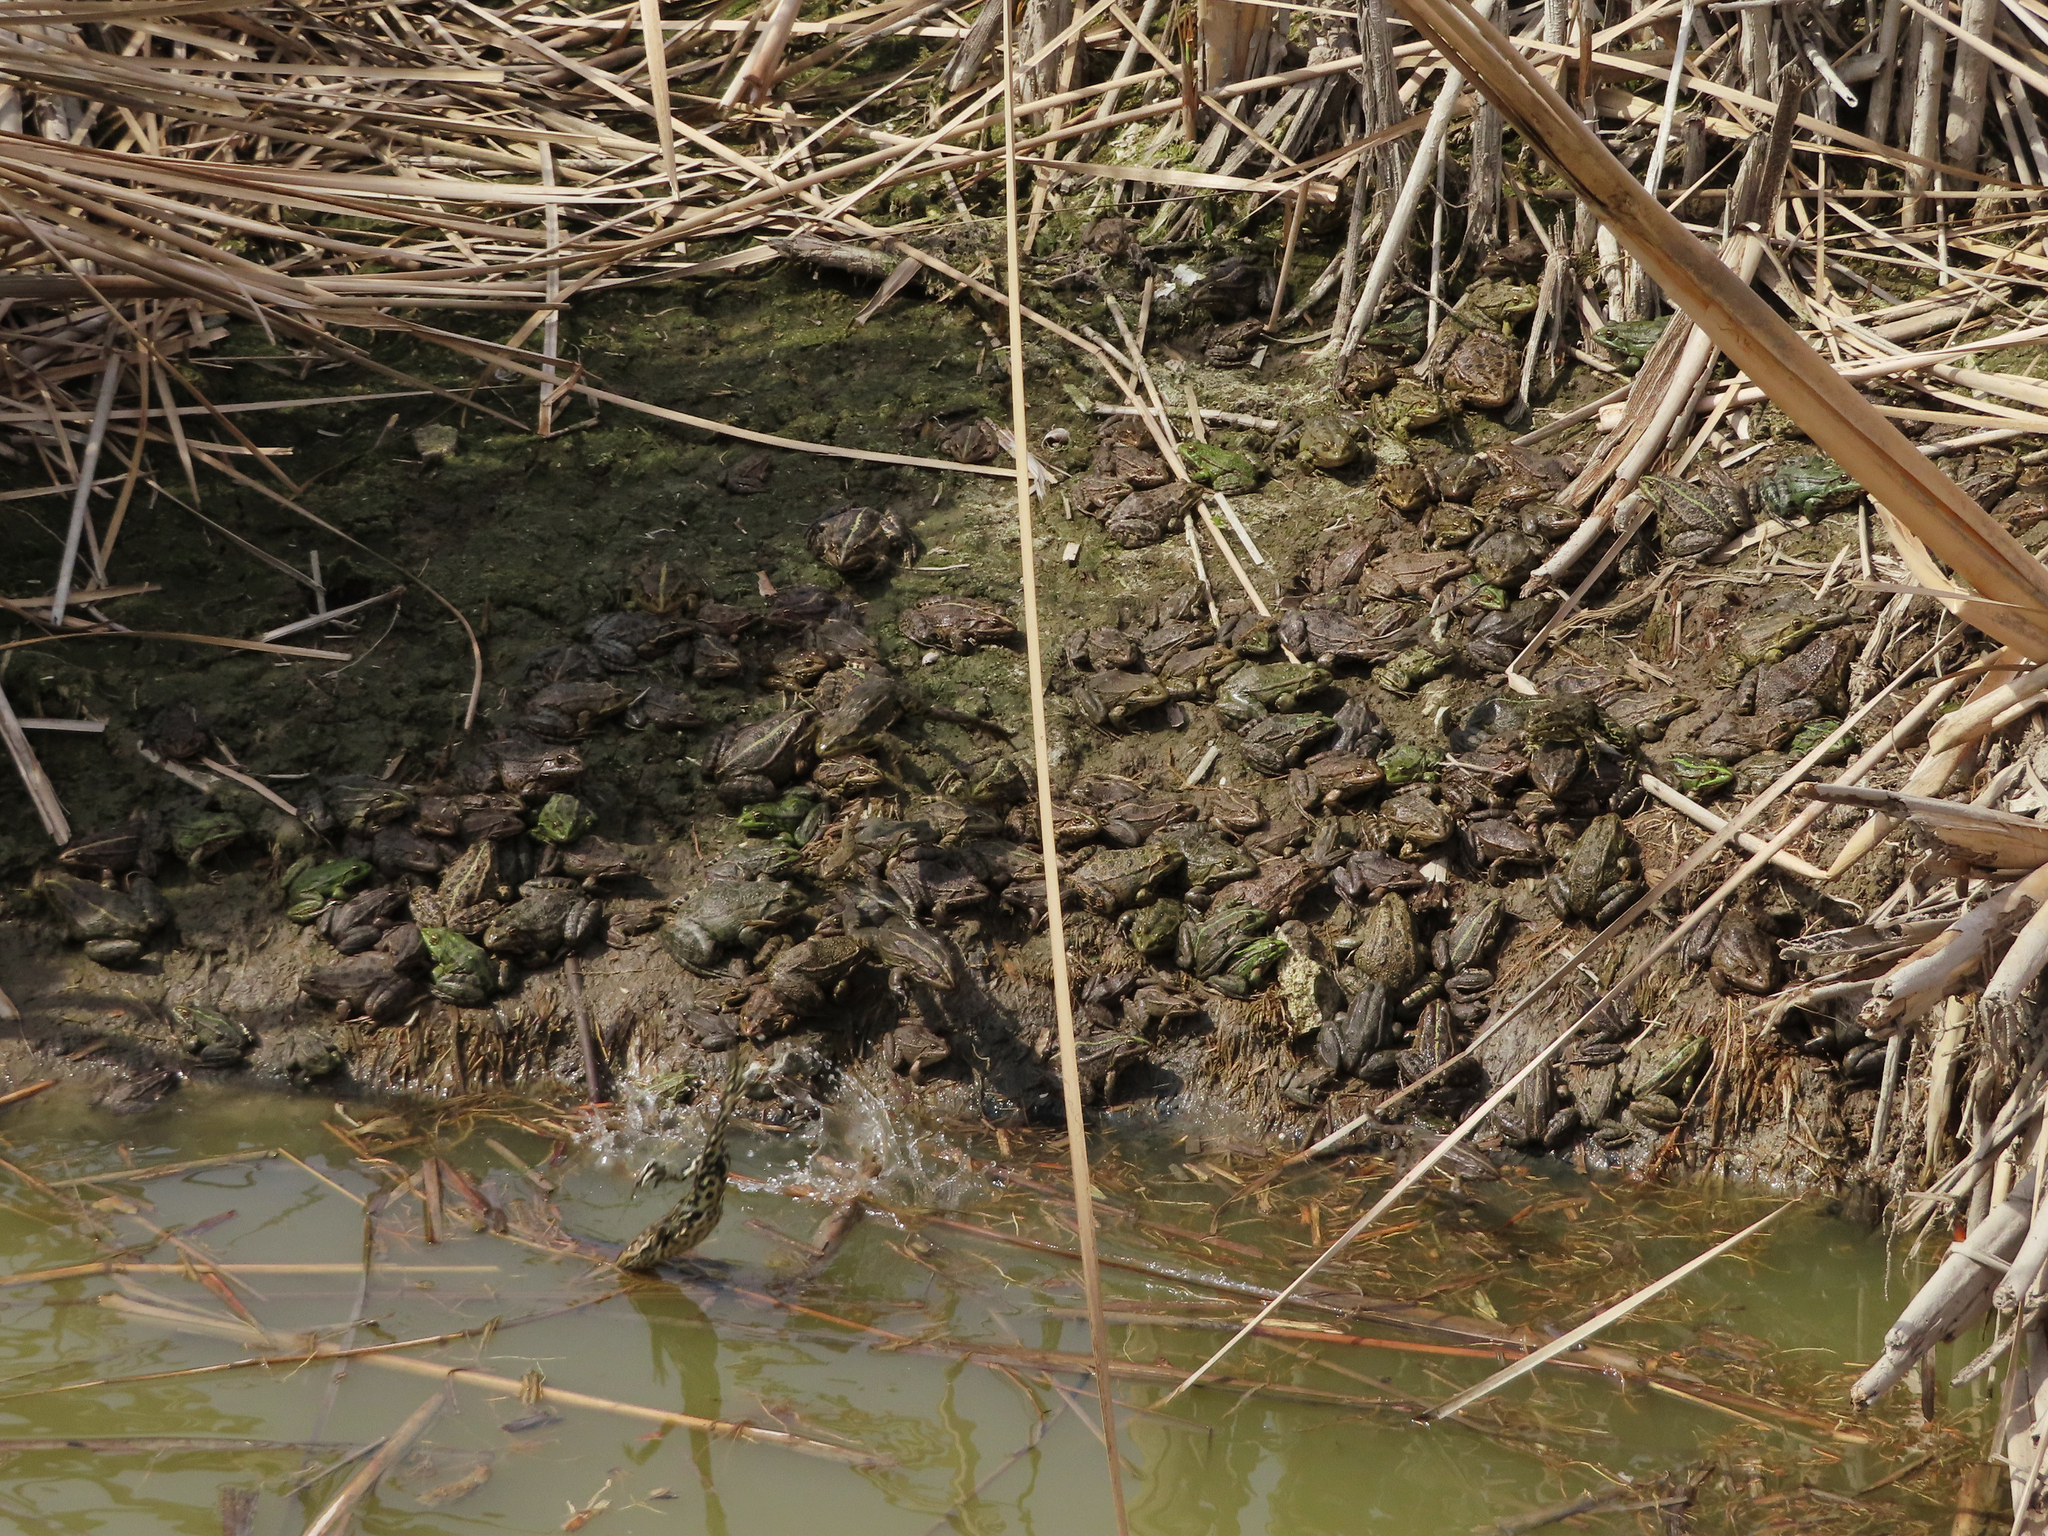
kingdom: Animalia
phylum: Chordata
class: Amphibia
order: Anura
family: Ranidae
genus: Pelophylax
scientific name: Pelophylax ridibundus
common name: Marsh frog
